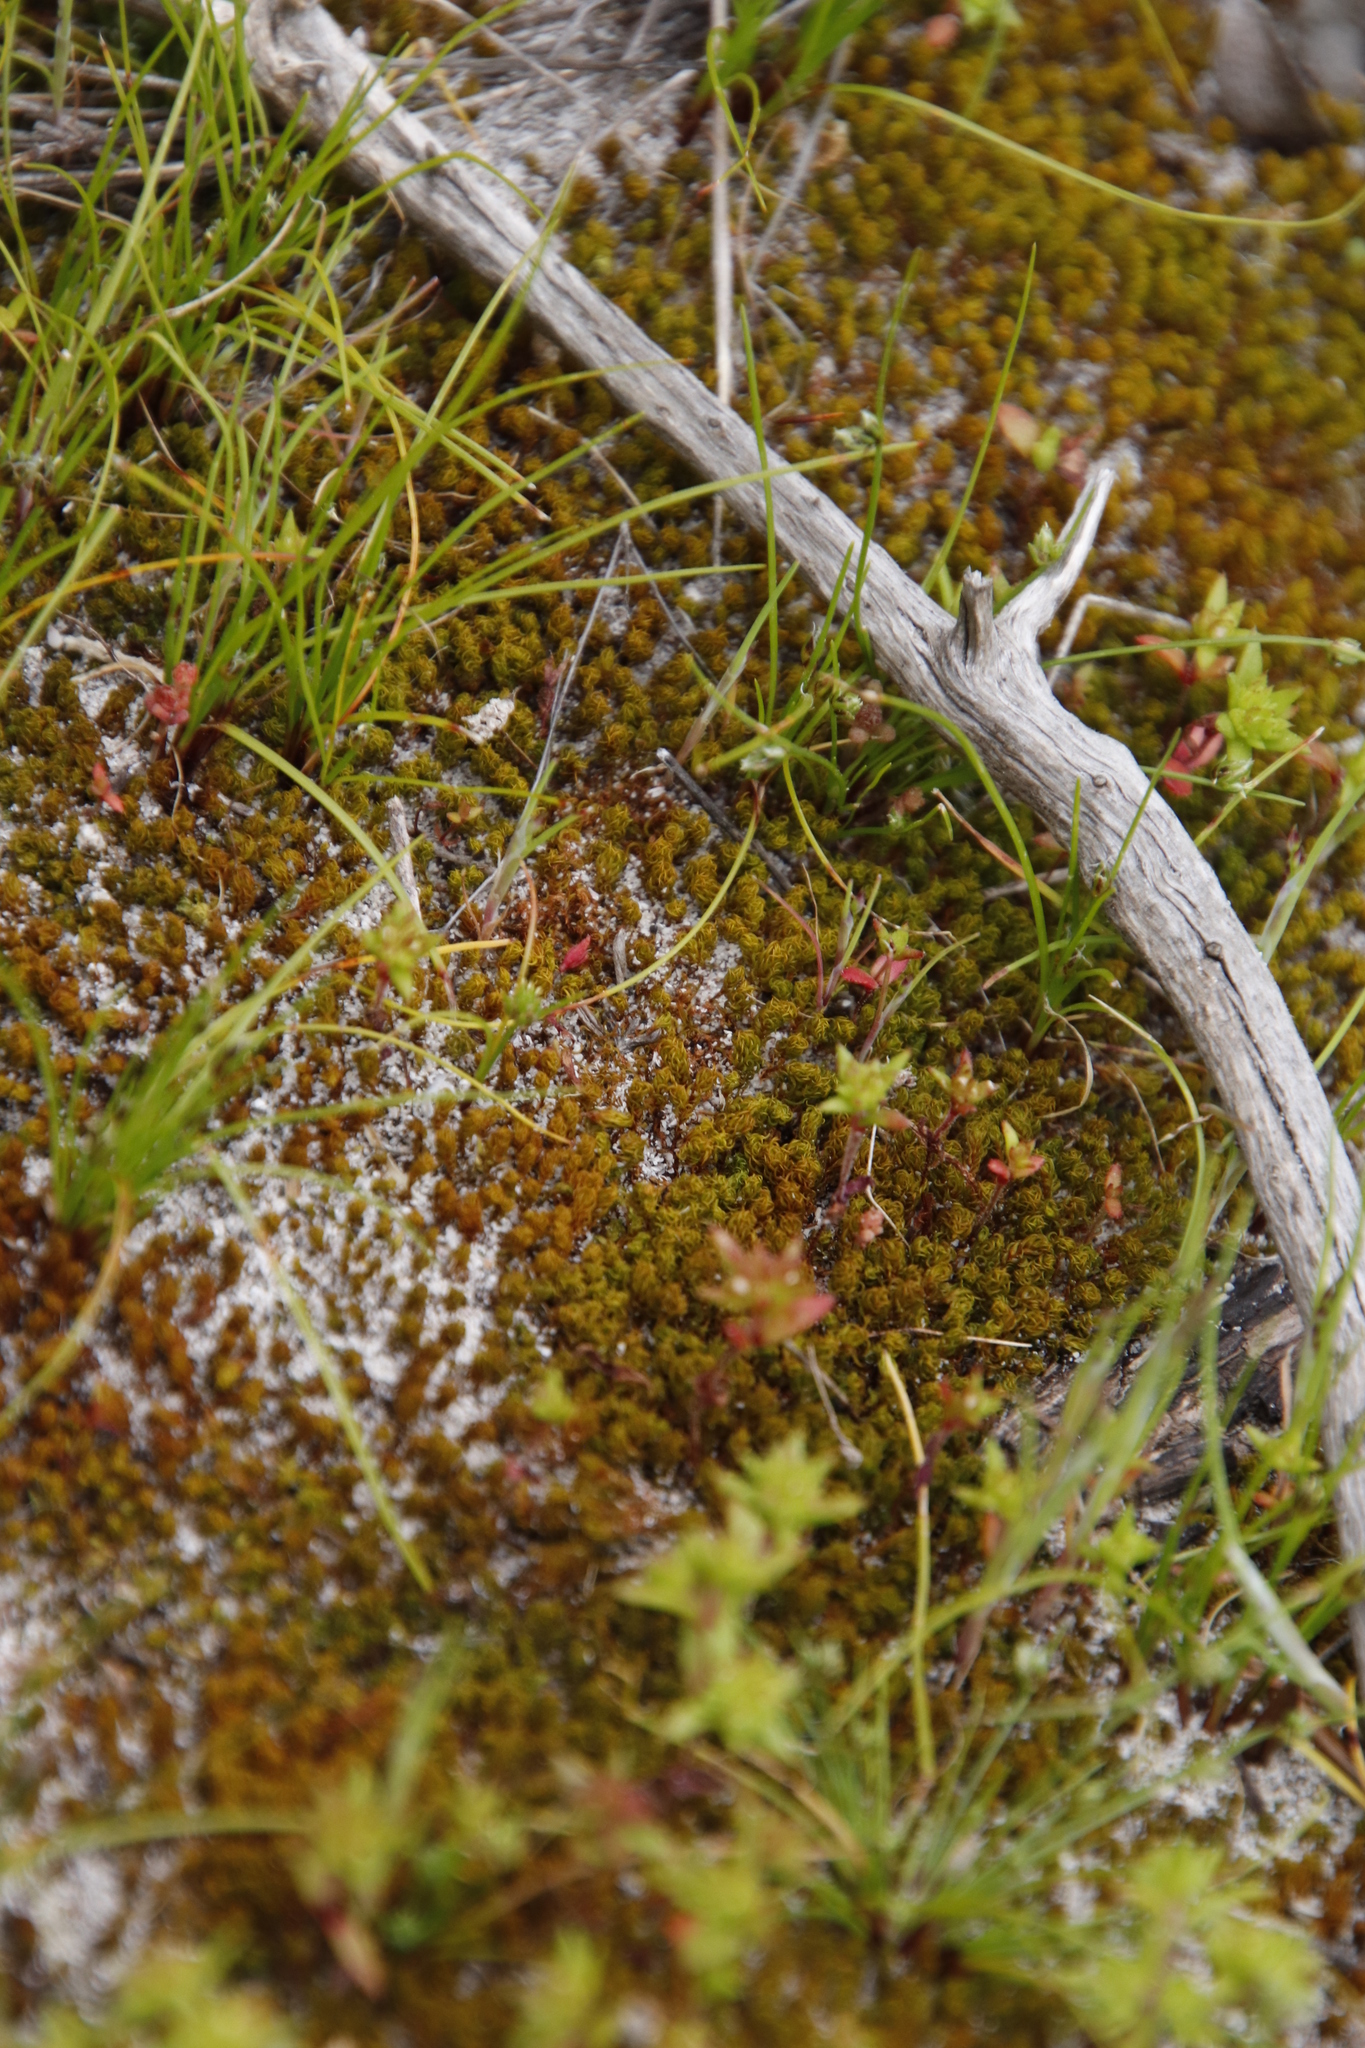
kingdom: Plantae
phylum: Bryophyta
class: Bryopsida
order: Pottiales
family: Pottiaceae
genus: Gertrudiella
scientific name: Gertrudiella xanthocarpa
